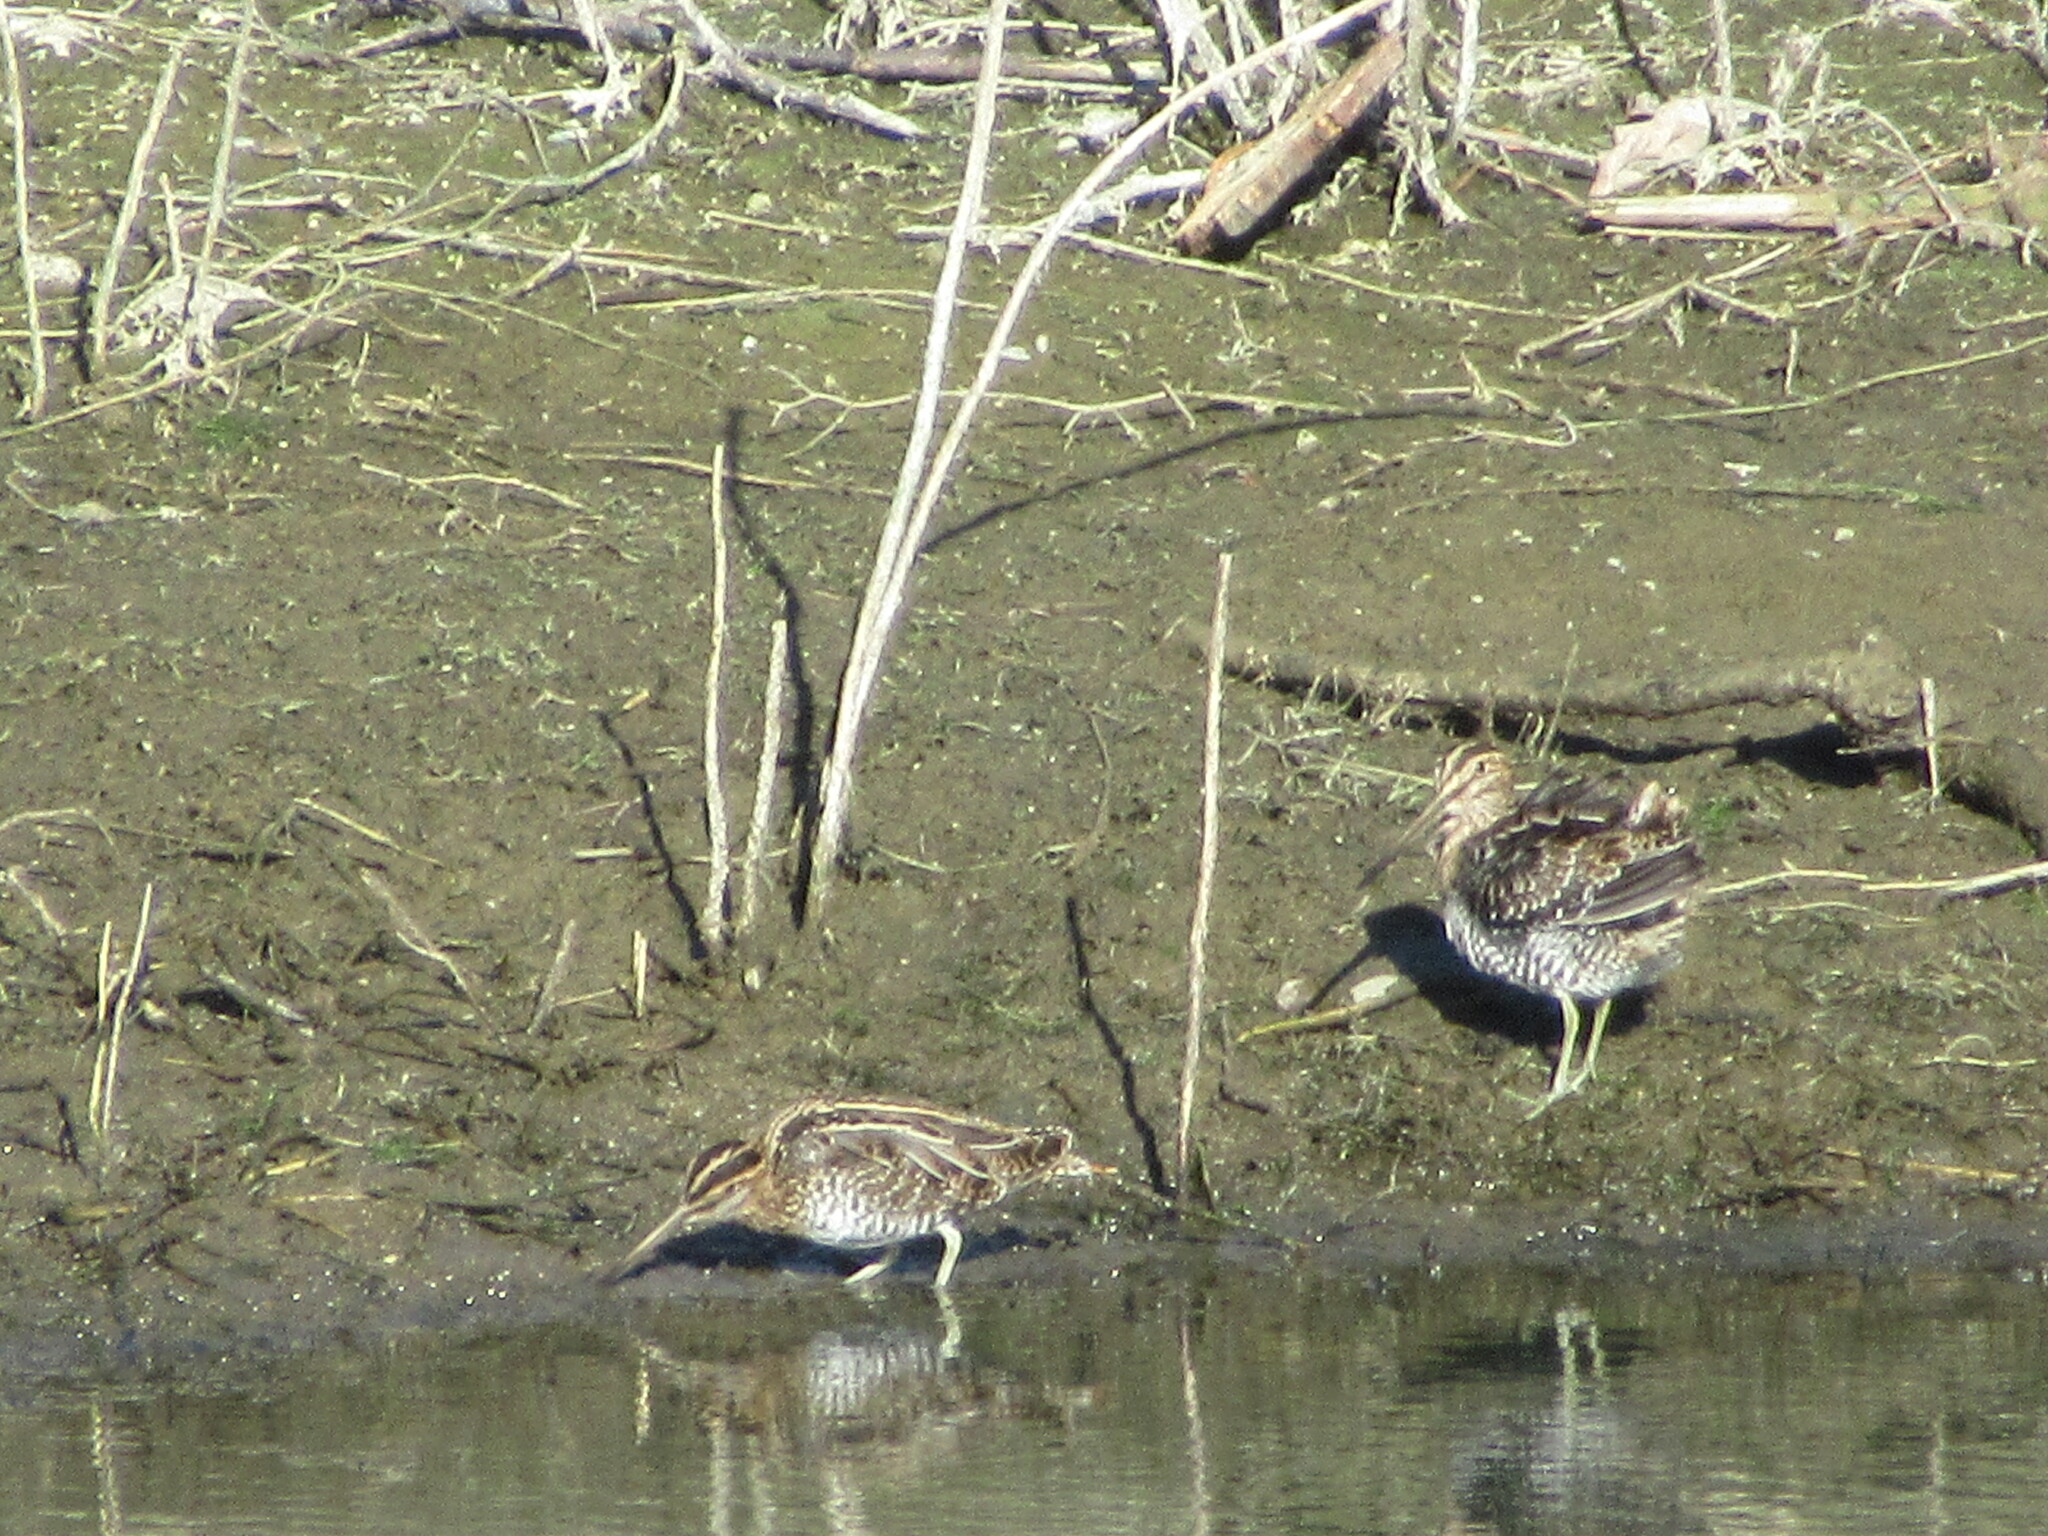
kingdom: Animalia
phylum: Chordata
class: Aves
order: Charadriiformes
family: Scolopacidae
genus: Gallinago
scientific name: Gallinago delicata
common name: Wilson's snipe
